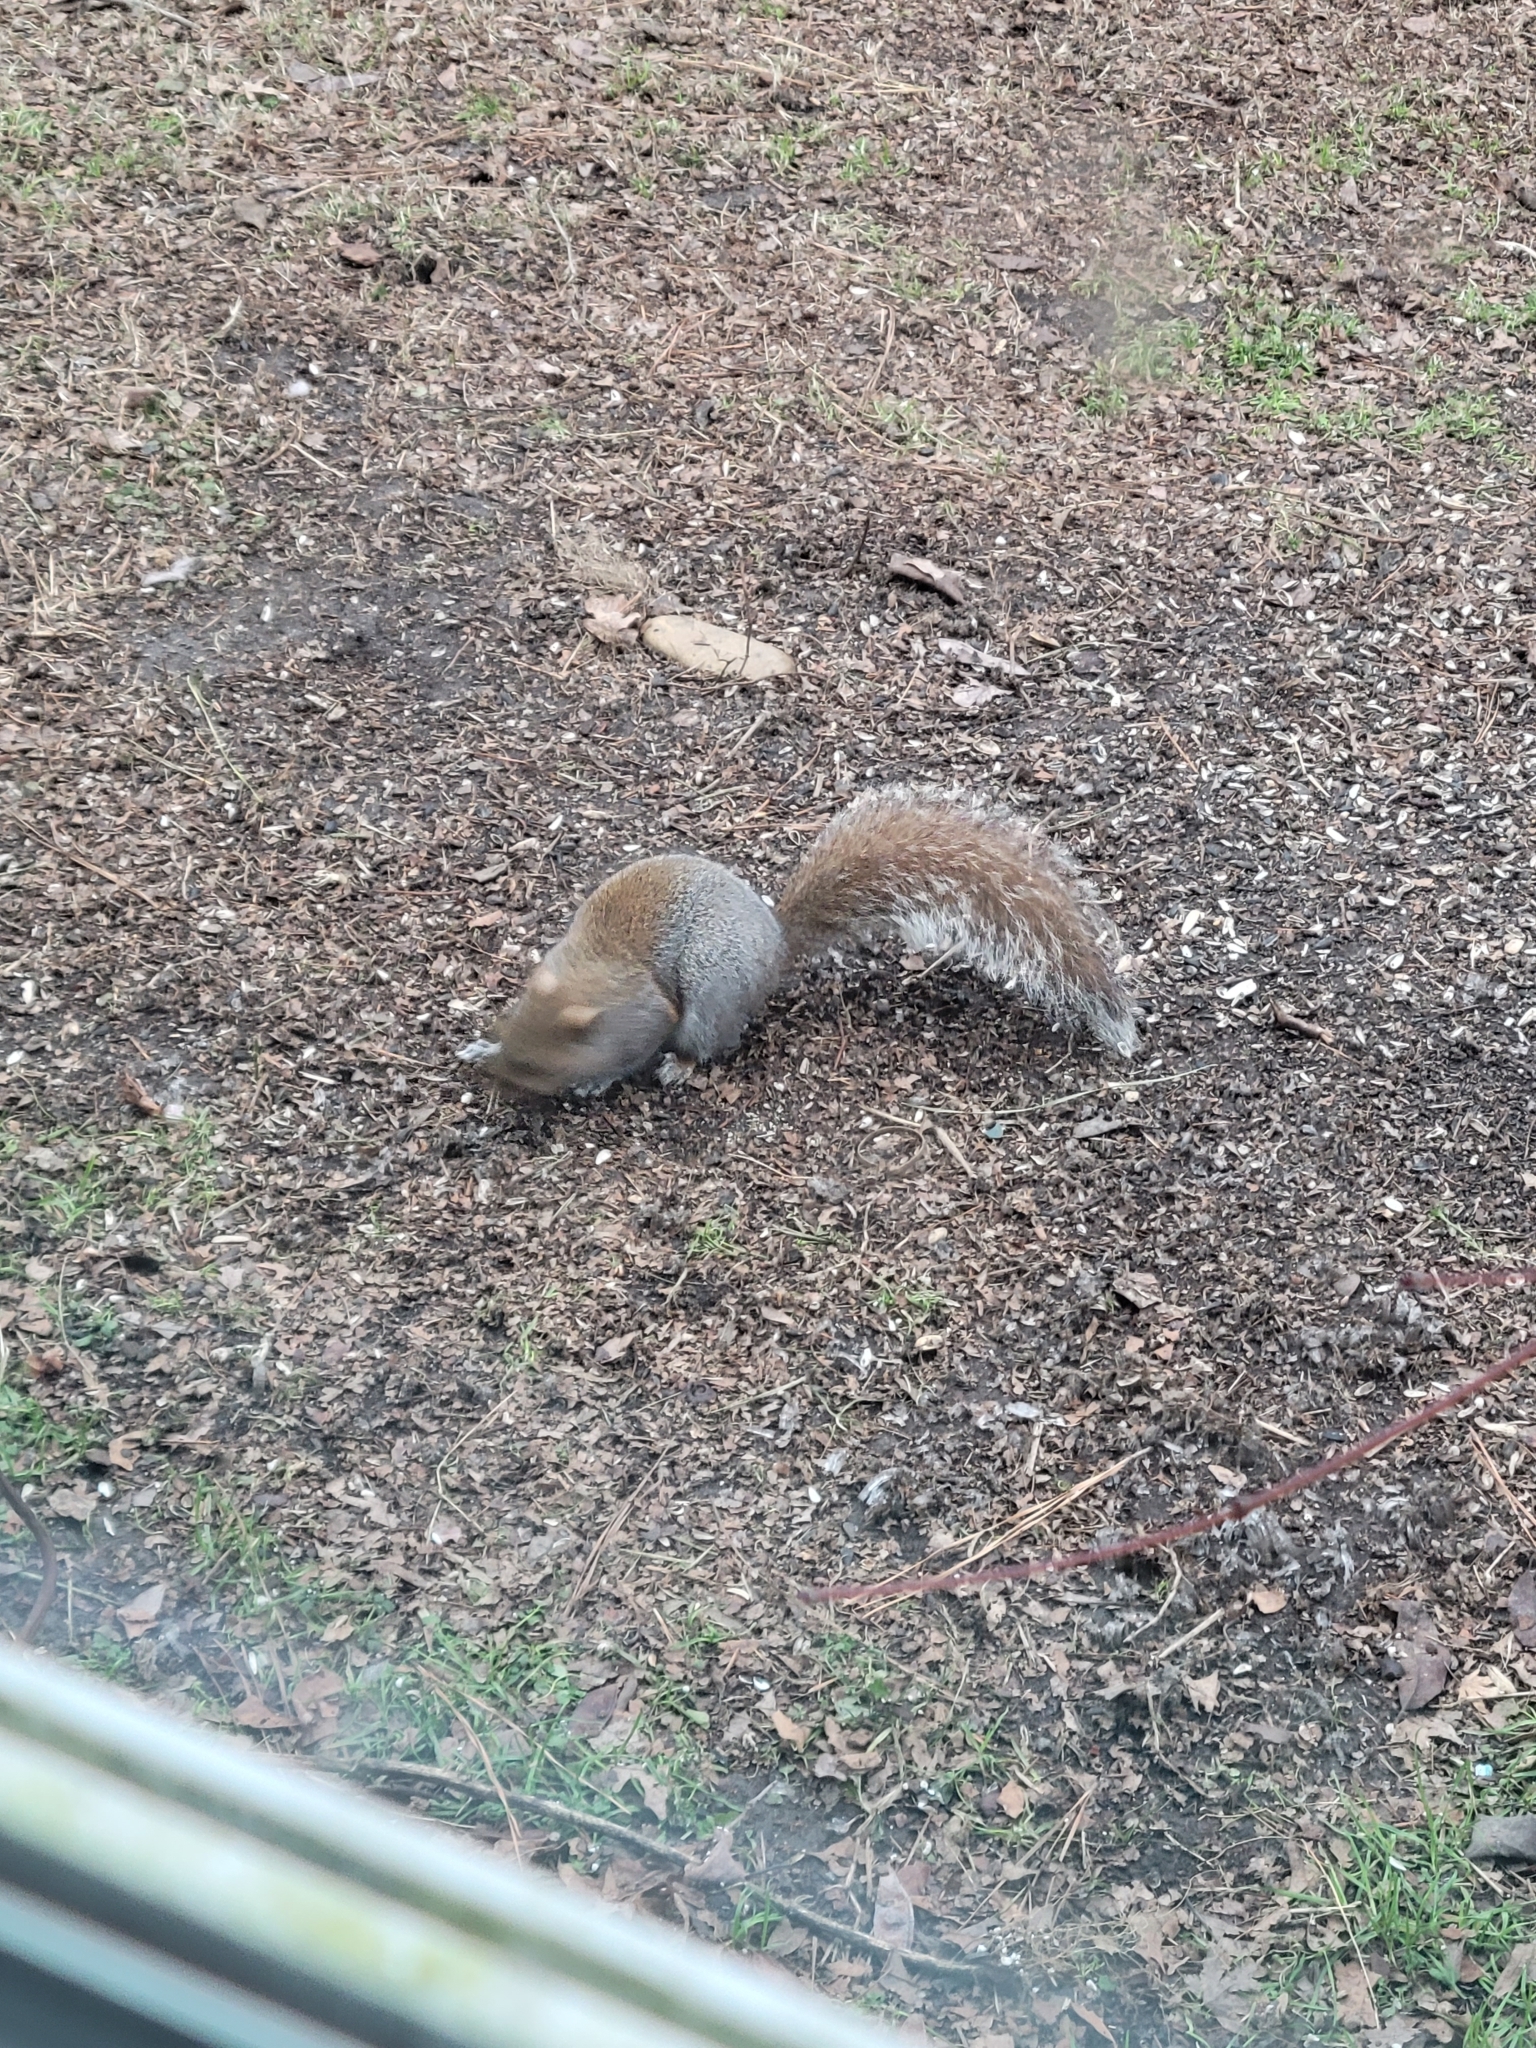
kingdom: Animalia
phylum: Chordata
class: Mammalia
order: Rodentia
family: Sciuridae
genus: Sciurus
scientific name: Sciurus carolinensis
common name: Eastern gray squirrel
